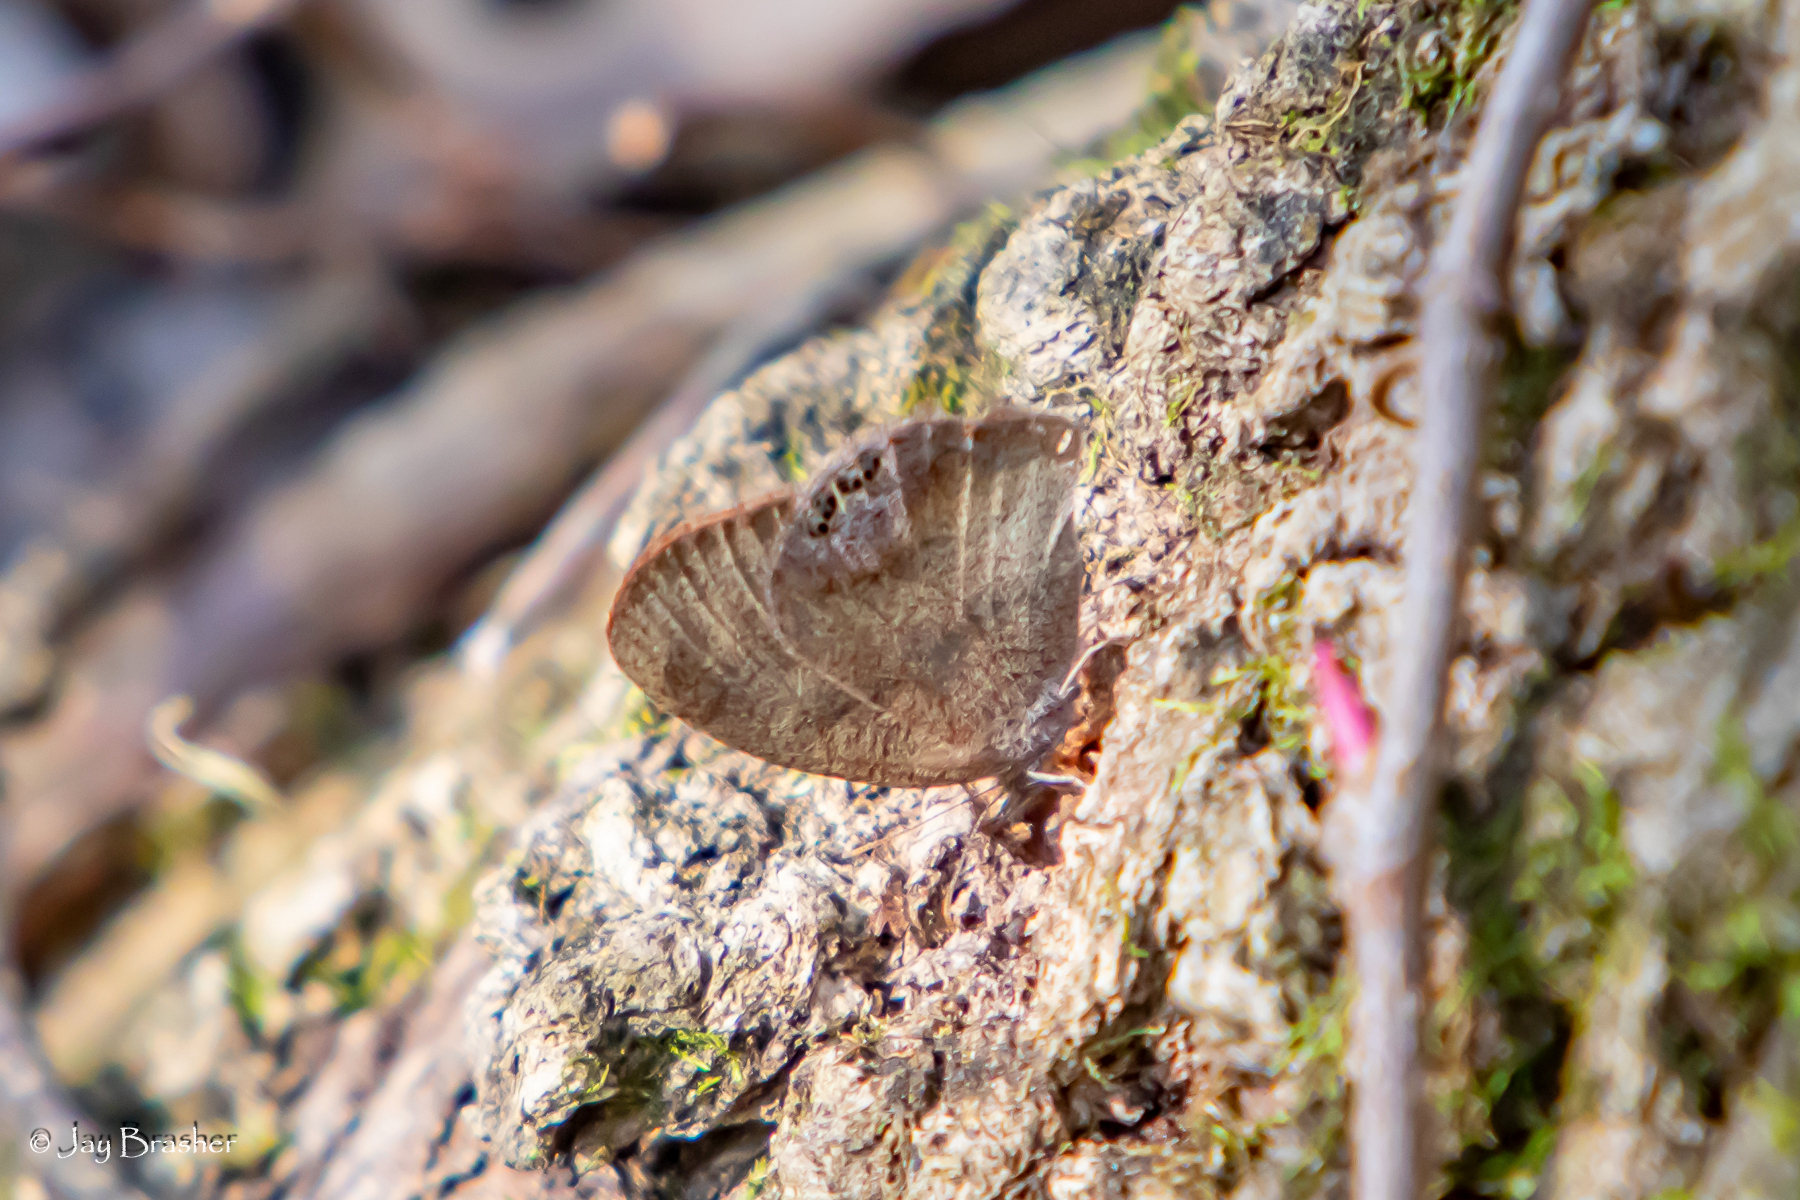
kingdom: Animalia
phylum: Arthropoda
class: Insecta
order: Lepidoptera
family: Nymphalidae
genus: Euptychia
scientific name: Euptychia cornelius
